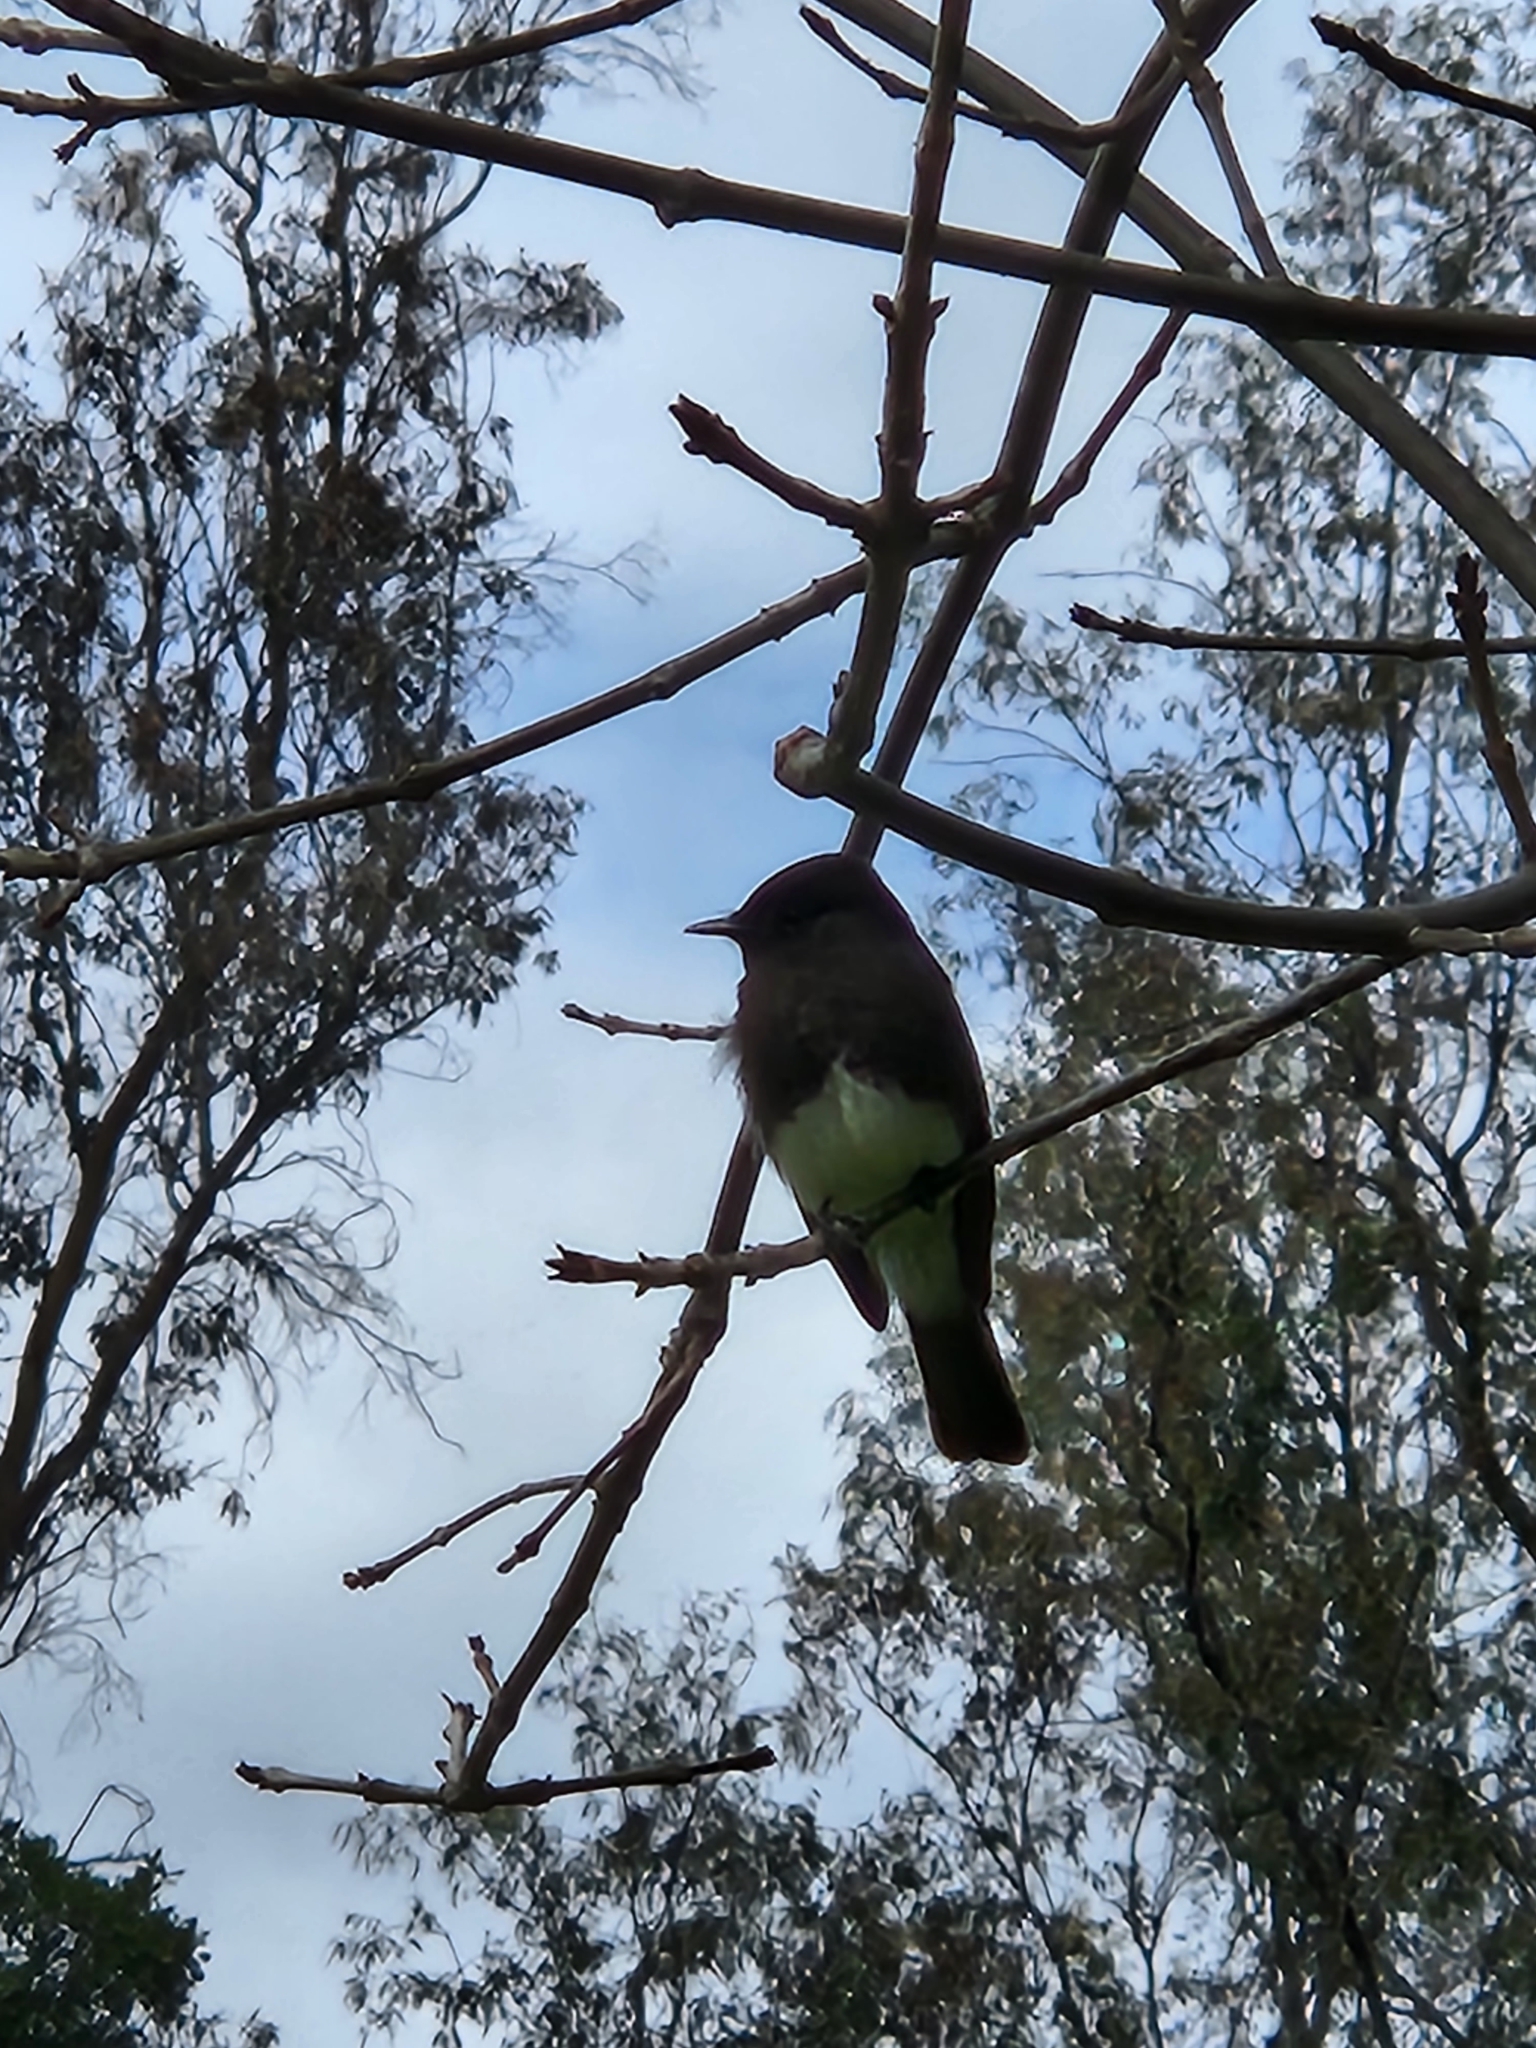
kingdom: Animalia
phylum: Chordata
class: Aves
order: Passeriformes
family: Tyrannidae
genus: Sayornis
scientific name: Sayornis nigricans
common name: Black phoebe
